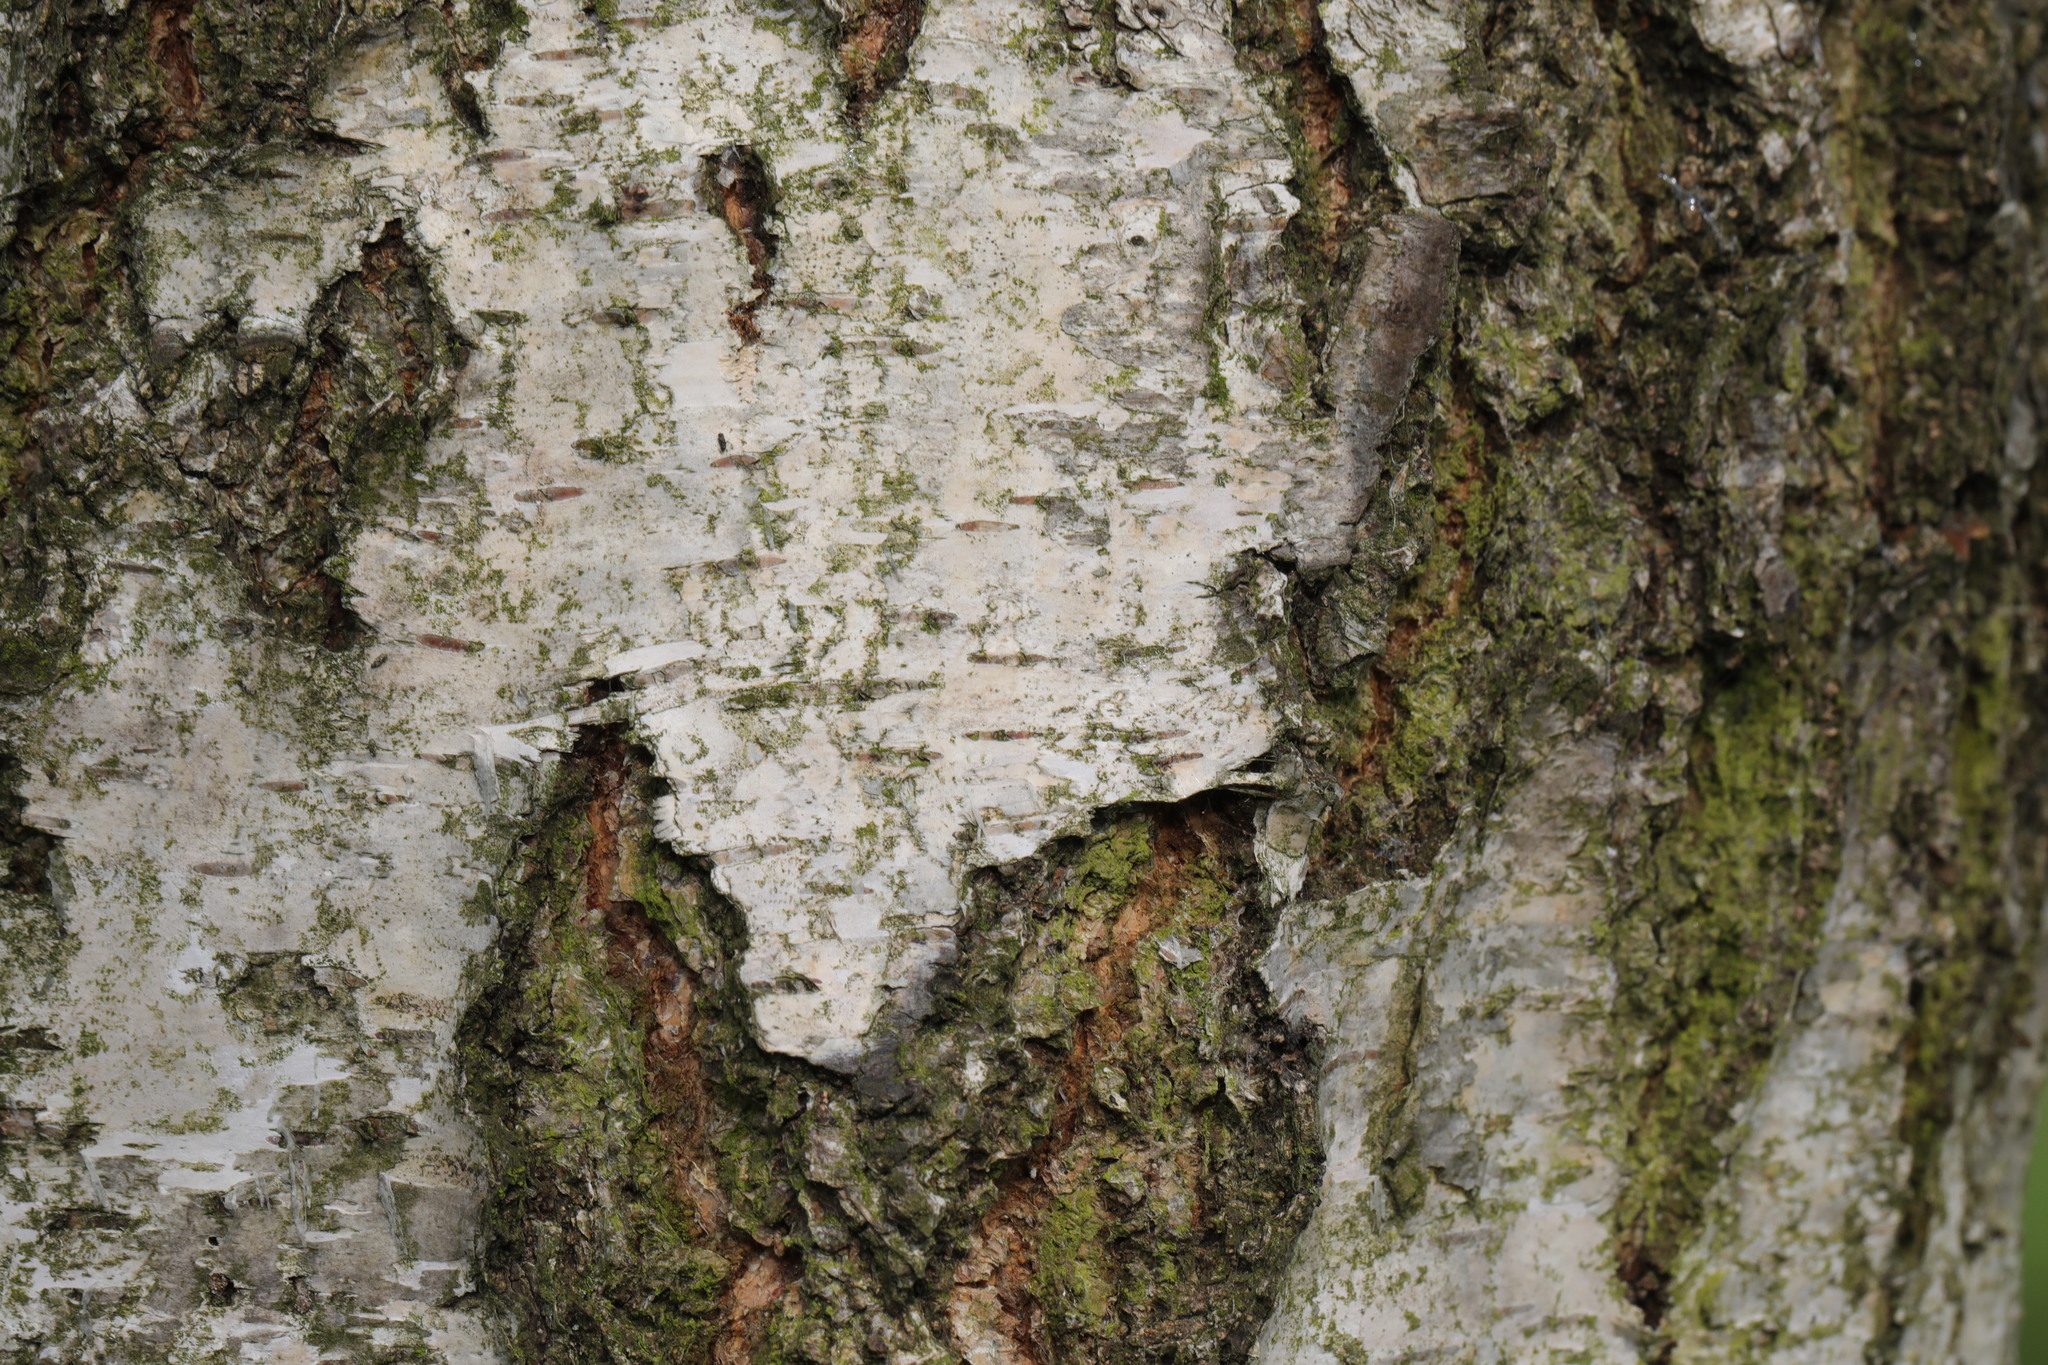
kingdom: Plantae
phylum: Tracheophyta
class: Magnoliopsida
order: Fagales
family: Betulaceae
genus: Betula
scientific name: Betula pendula
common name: Silver birch
